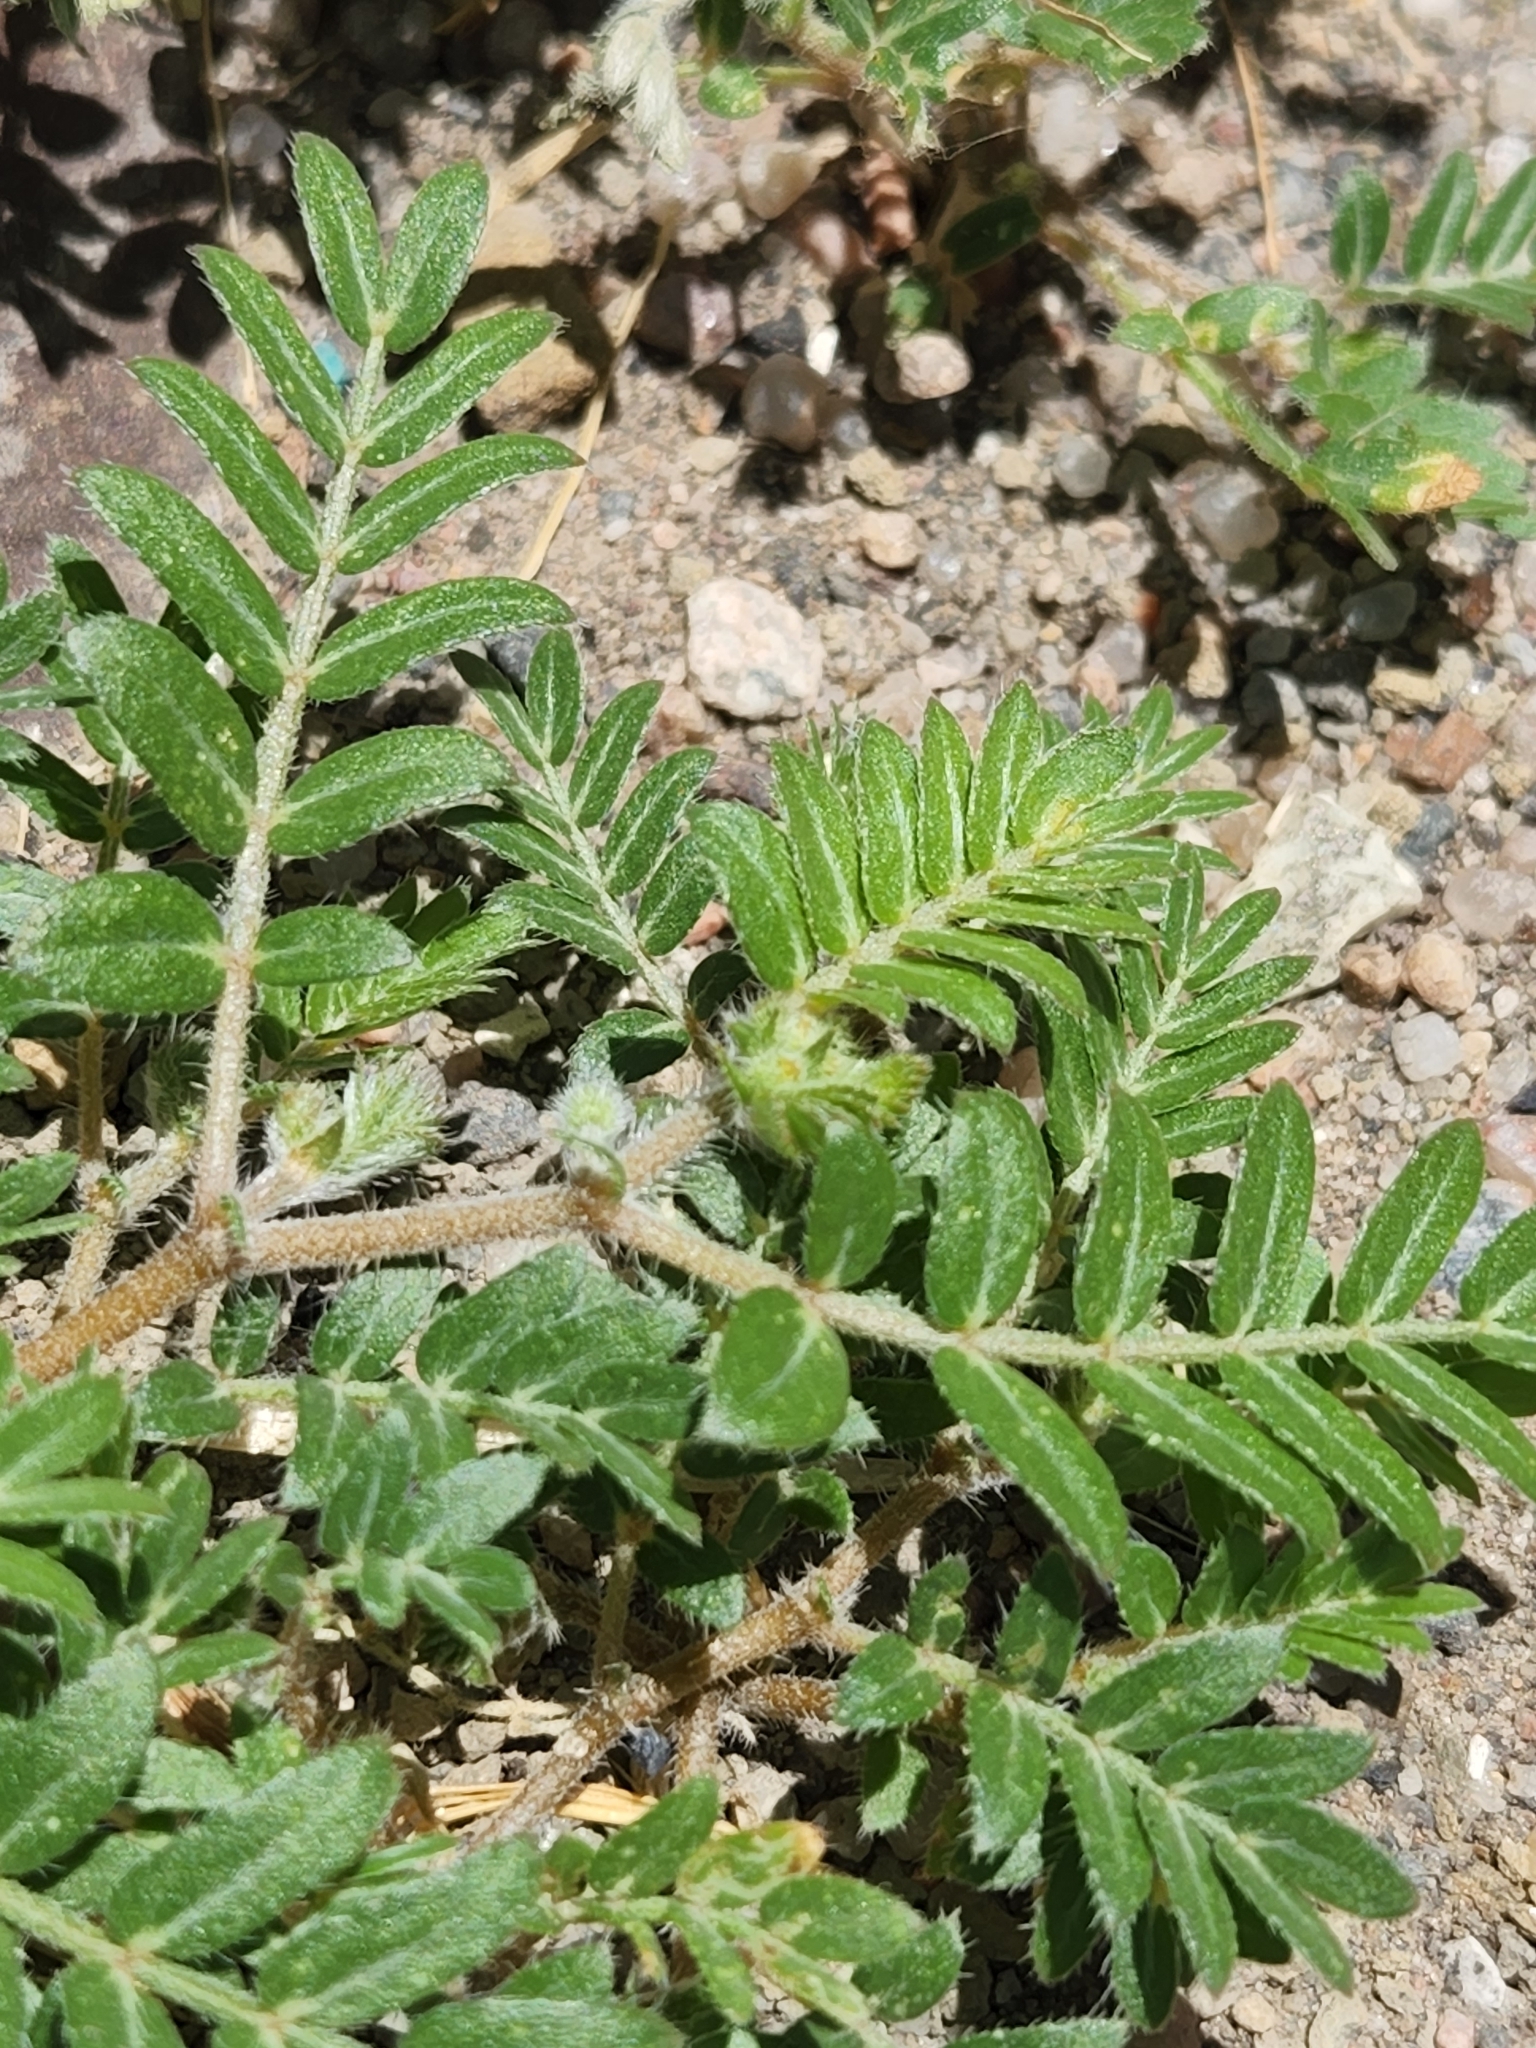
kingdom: Plantae
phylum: Tracheophyta
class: Magnoliopsida
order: Zygophyllales
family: Zygophyllaceae
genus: Tribulus
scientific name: Tribulus terrestris
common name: Puncturevine
